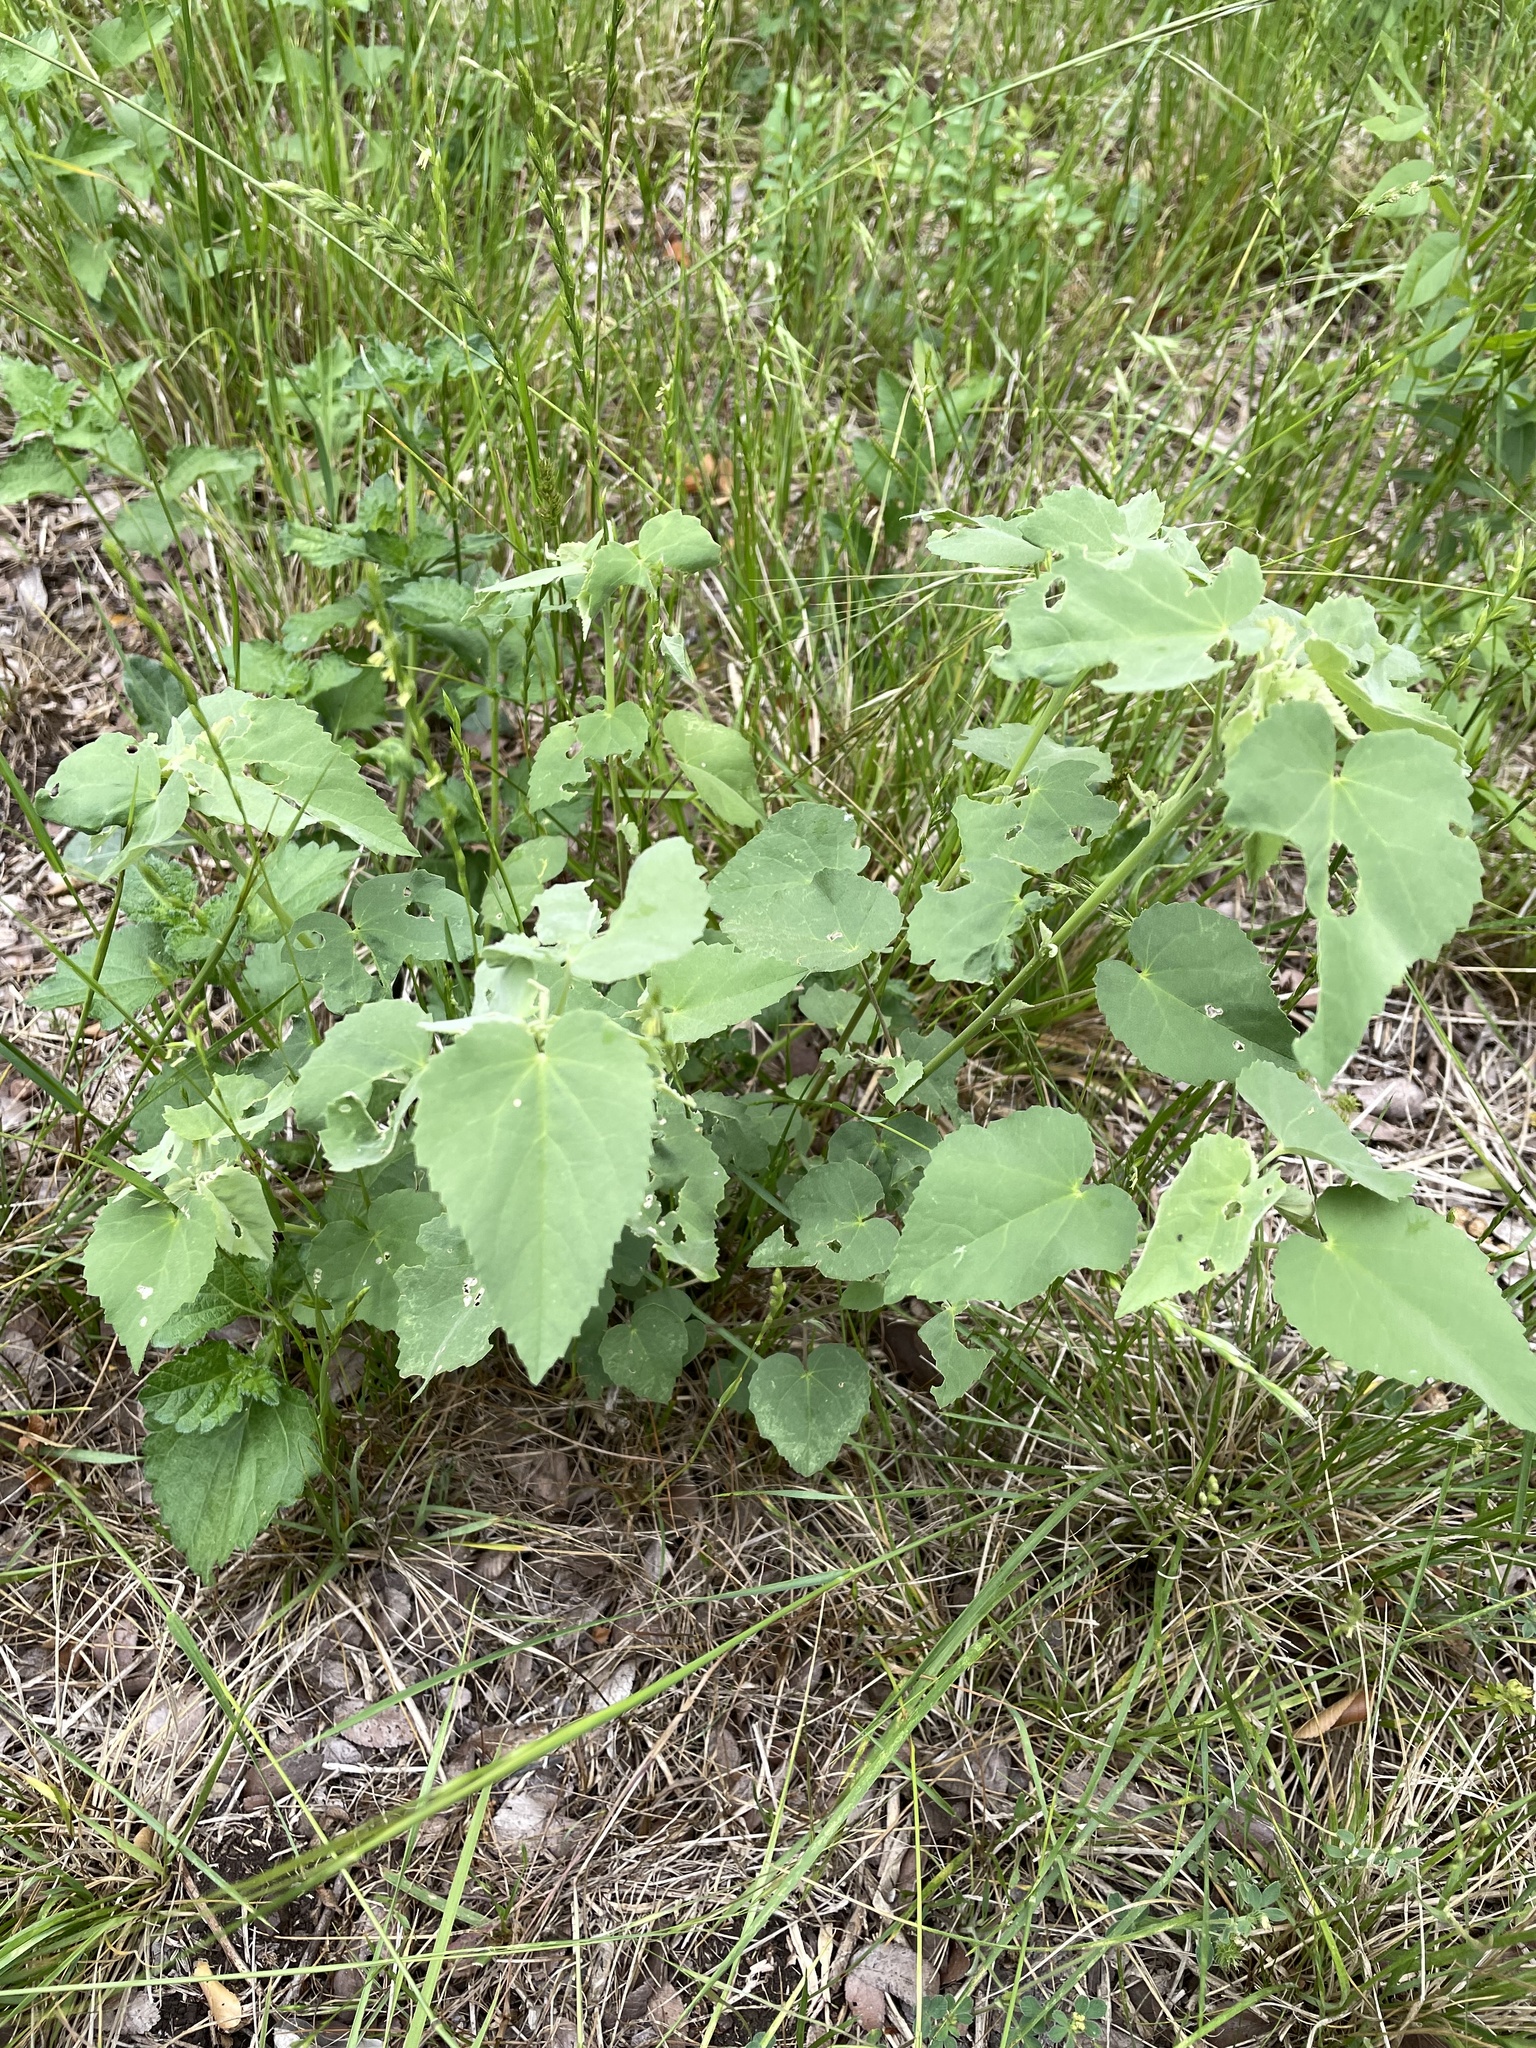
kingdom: Plantae
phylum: Tracheophyta
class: Magnoliopsida
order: Malvales
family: Malvaceae
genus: Abutilon
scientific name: Abutilon fruticosum
